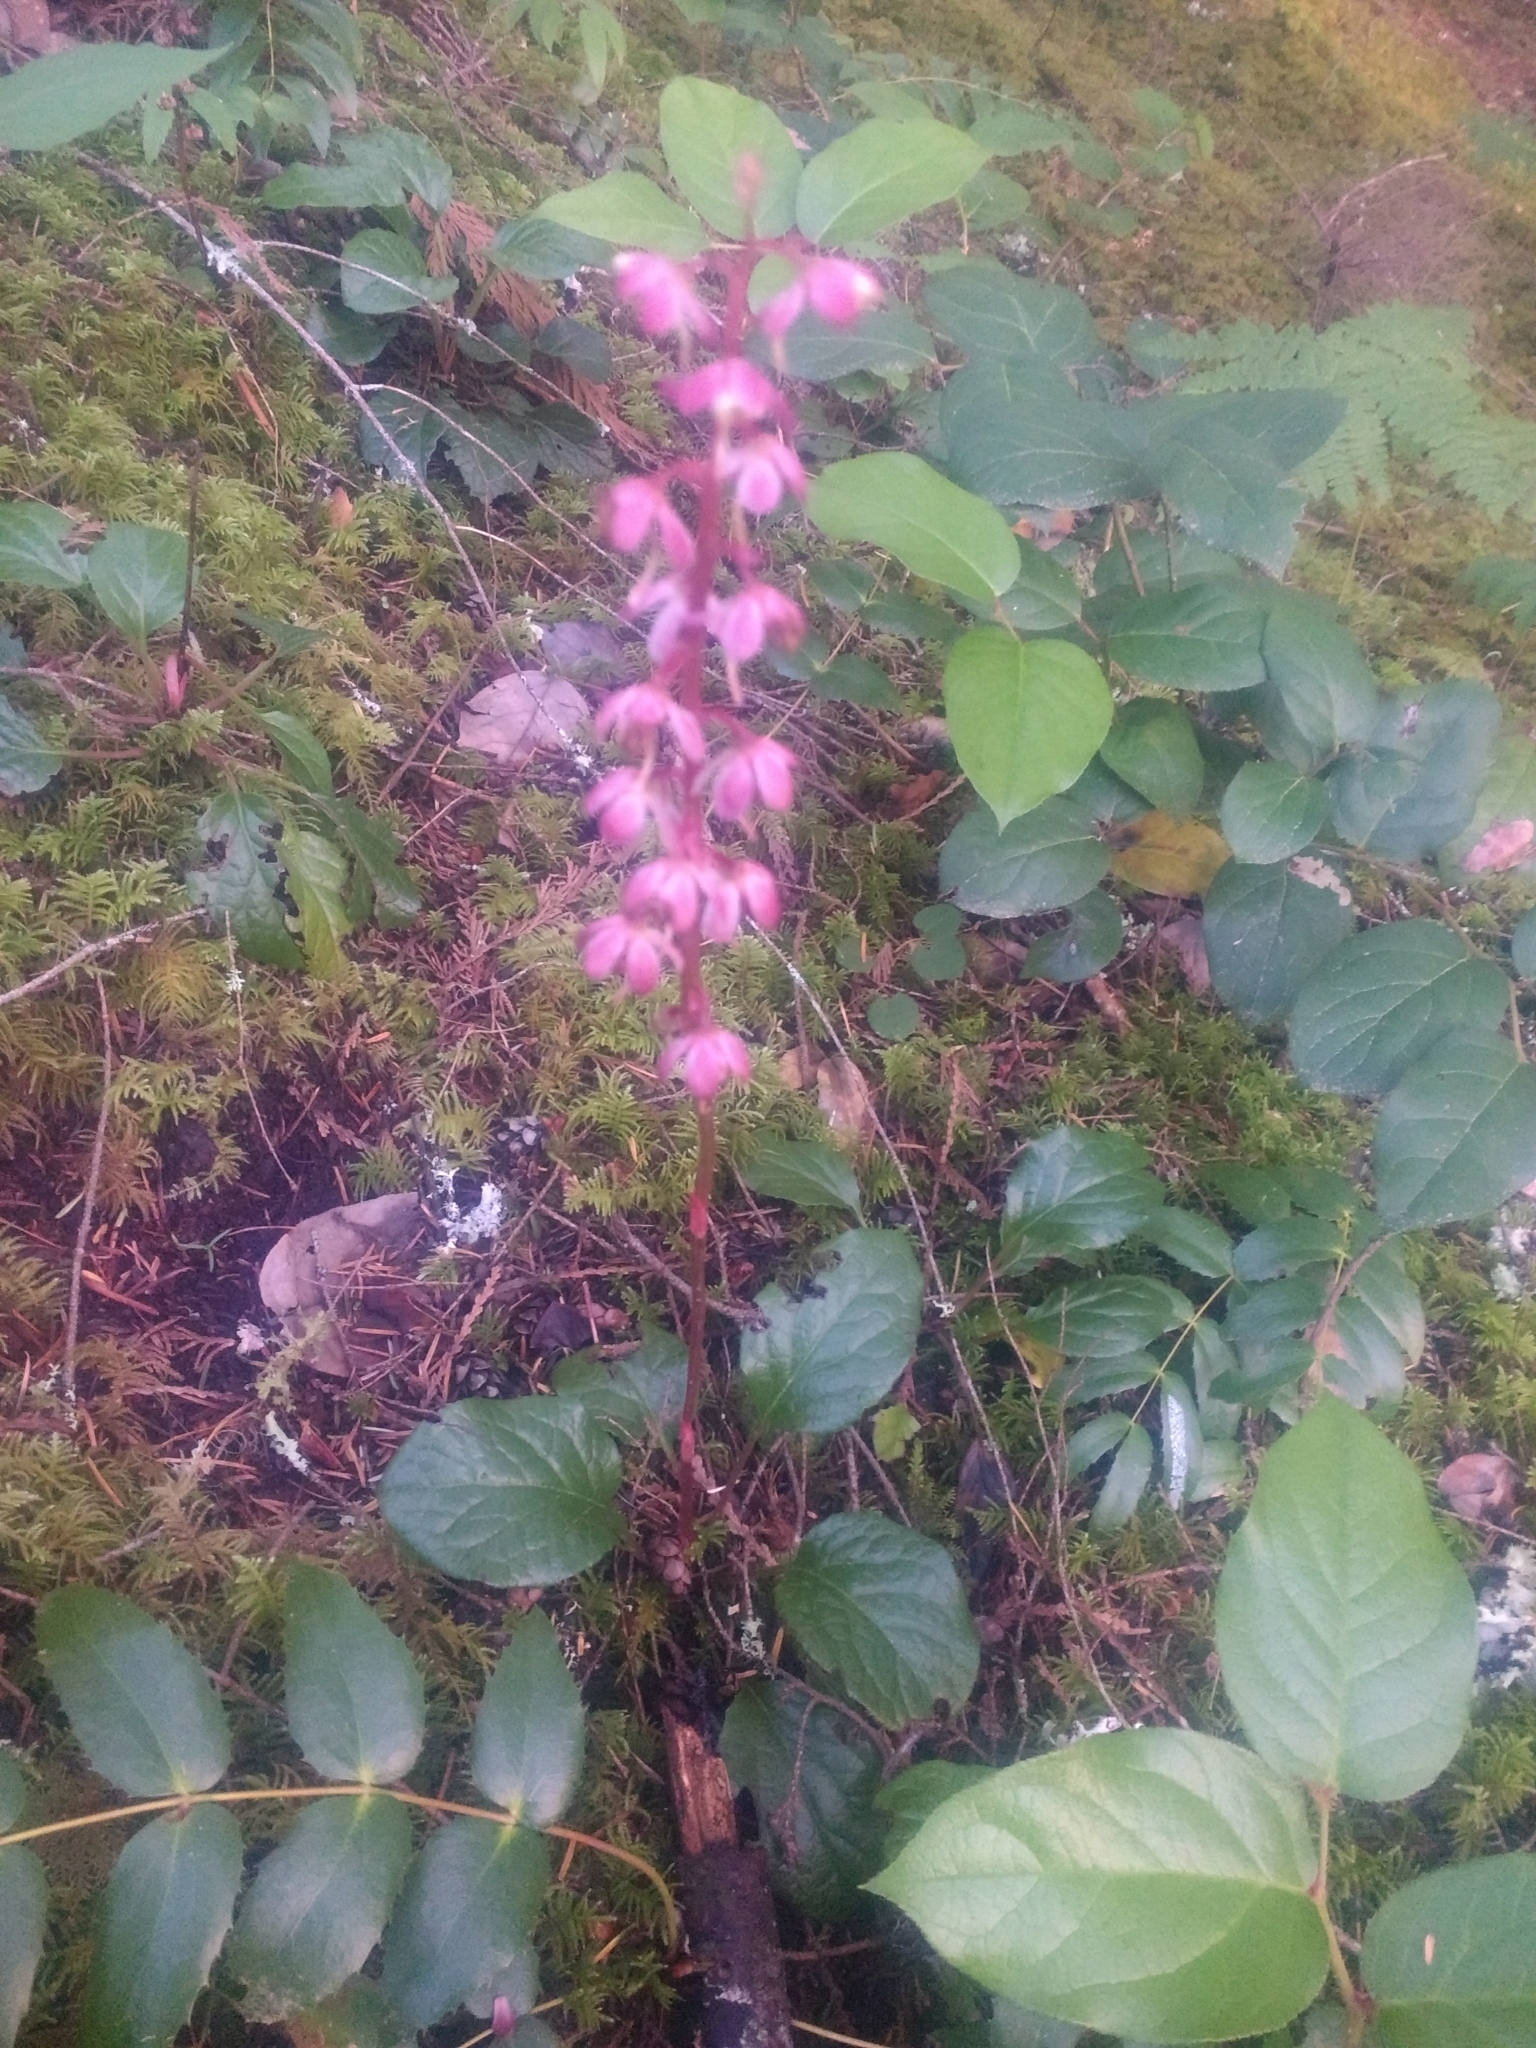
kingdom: Plantae
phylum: Tracheophyta
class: Magnoliopsida
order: Ericales
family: Ericaceae
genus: Pyrola
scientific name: Pyrola asarifolia
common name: Bog wintergreen
